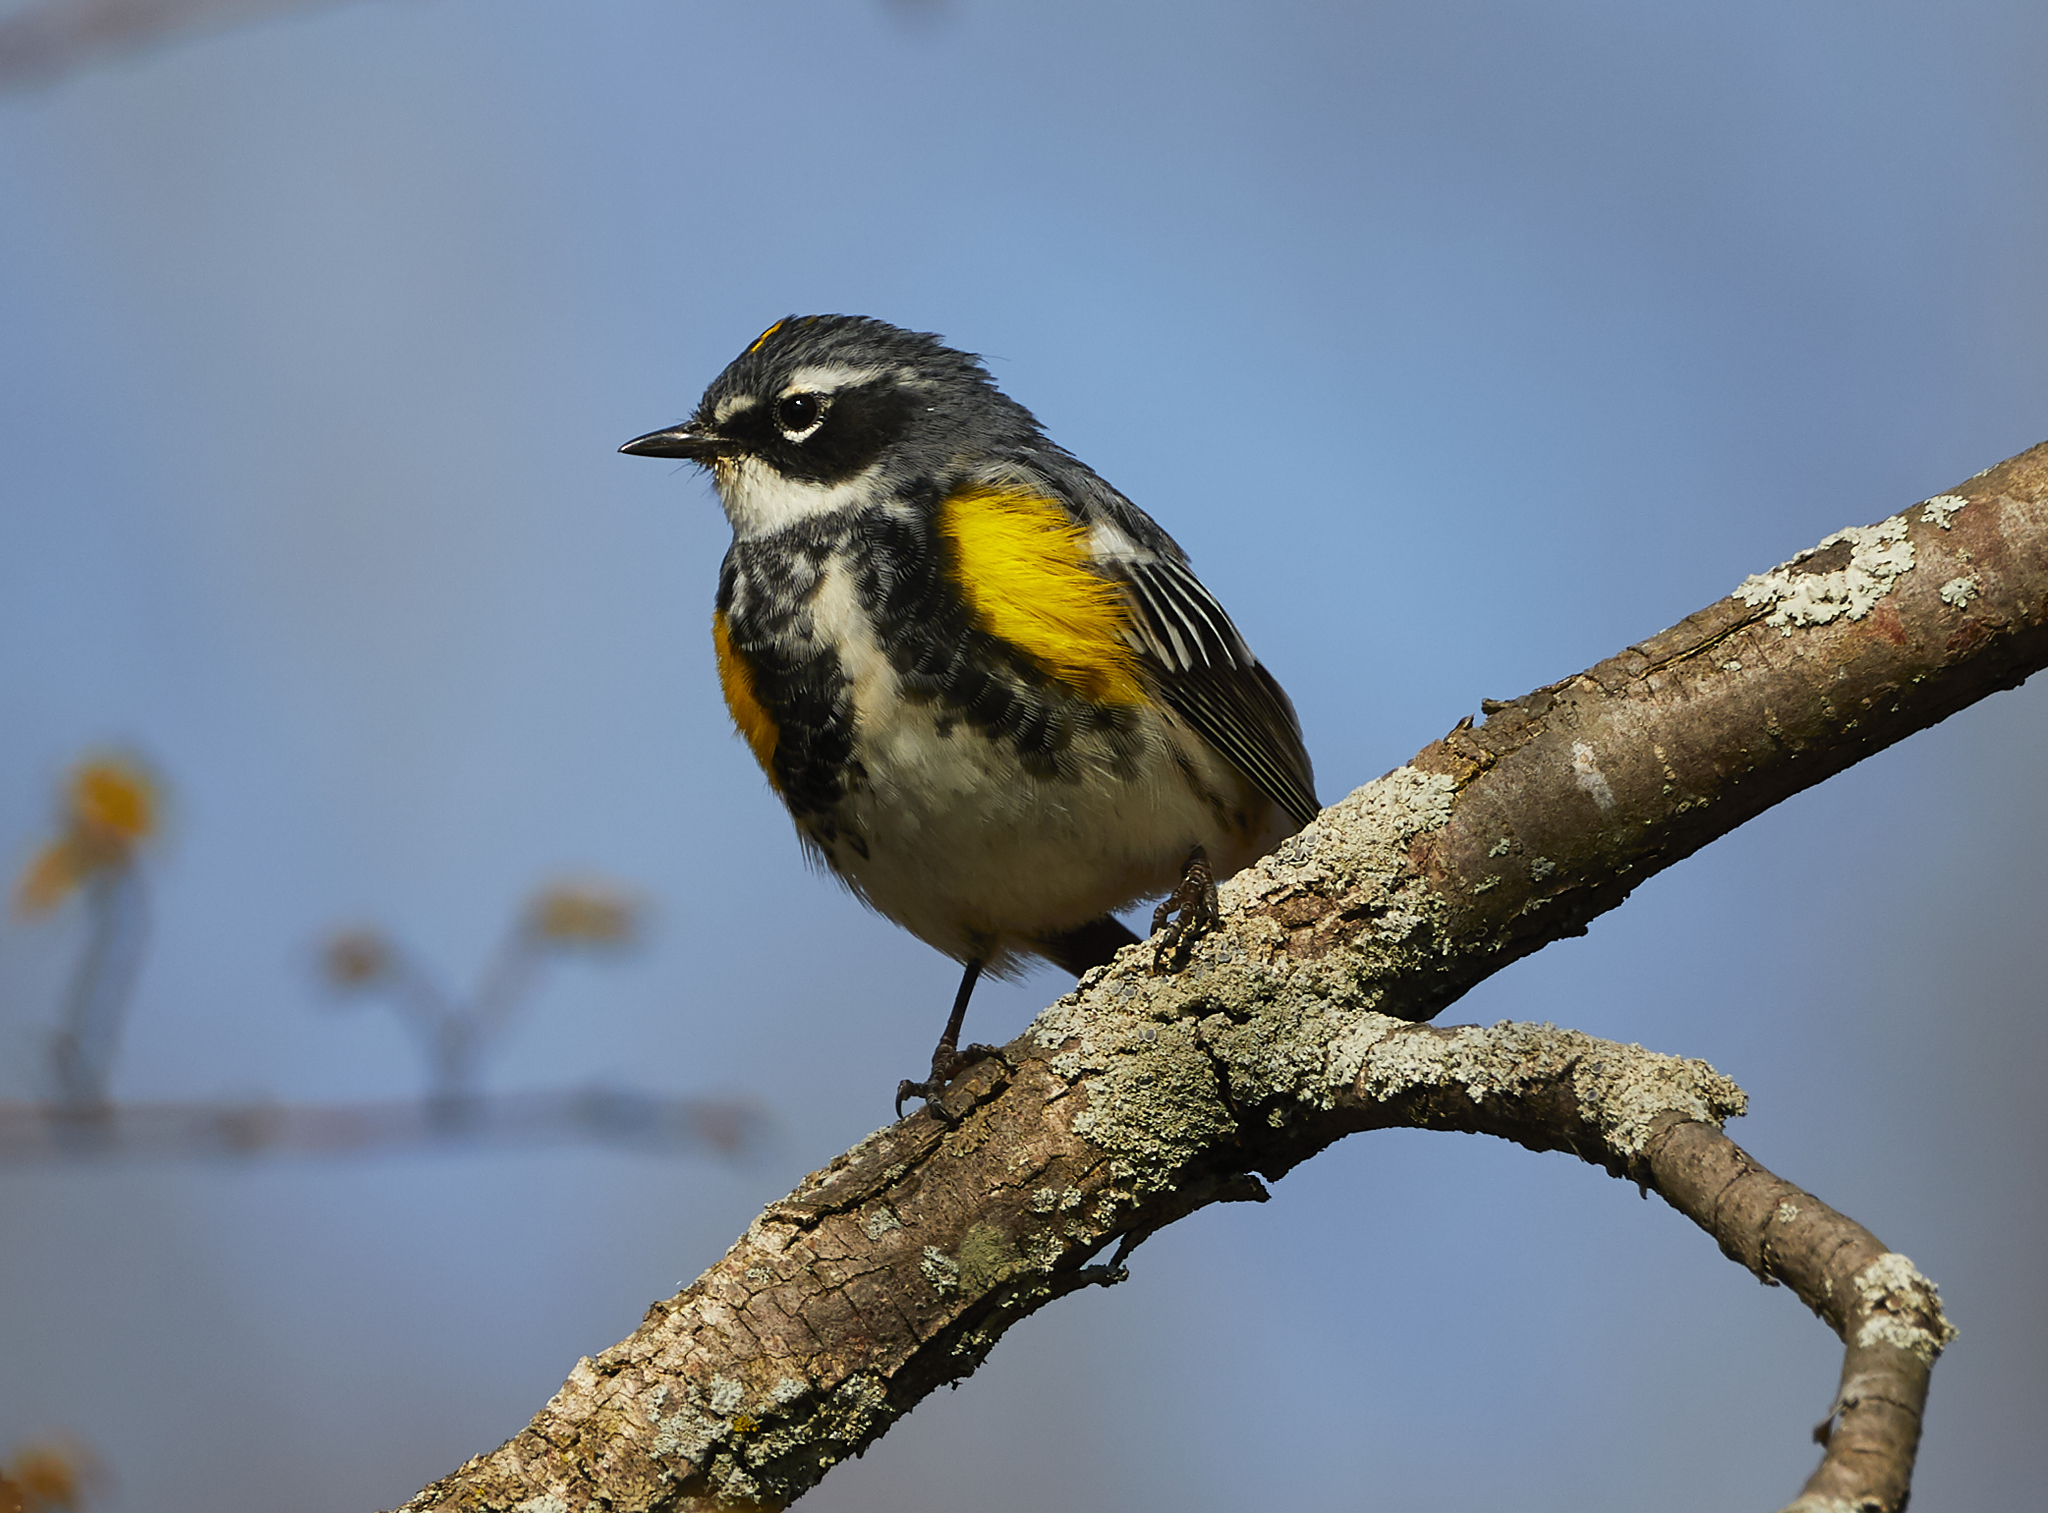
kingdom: Animalia
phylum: Chordata
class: Aves
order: Passeriformes
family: Parulidae
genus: Setophaga
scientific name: Setophaga coronata
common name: Myrtle warbler
